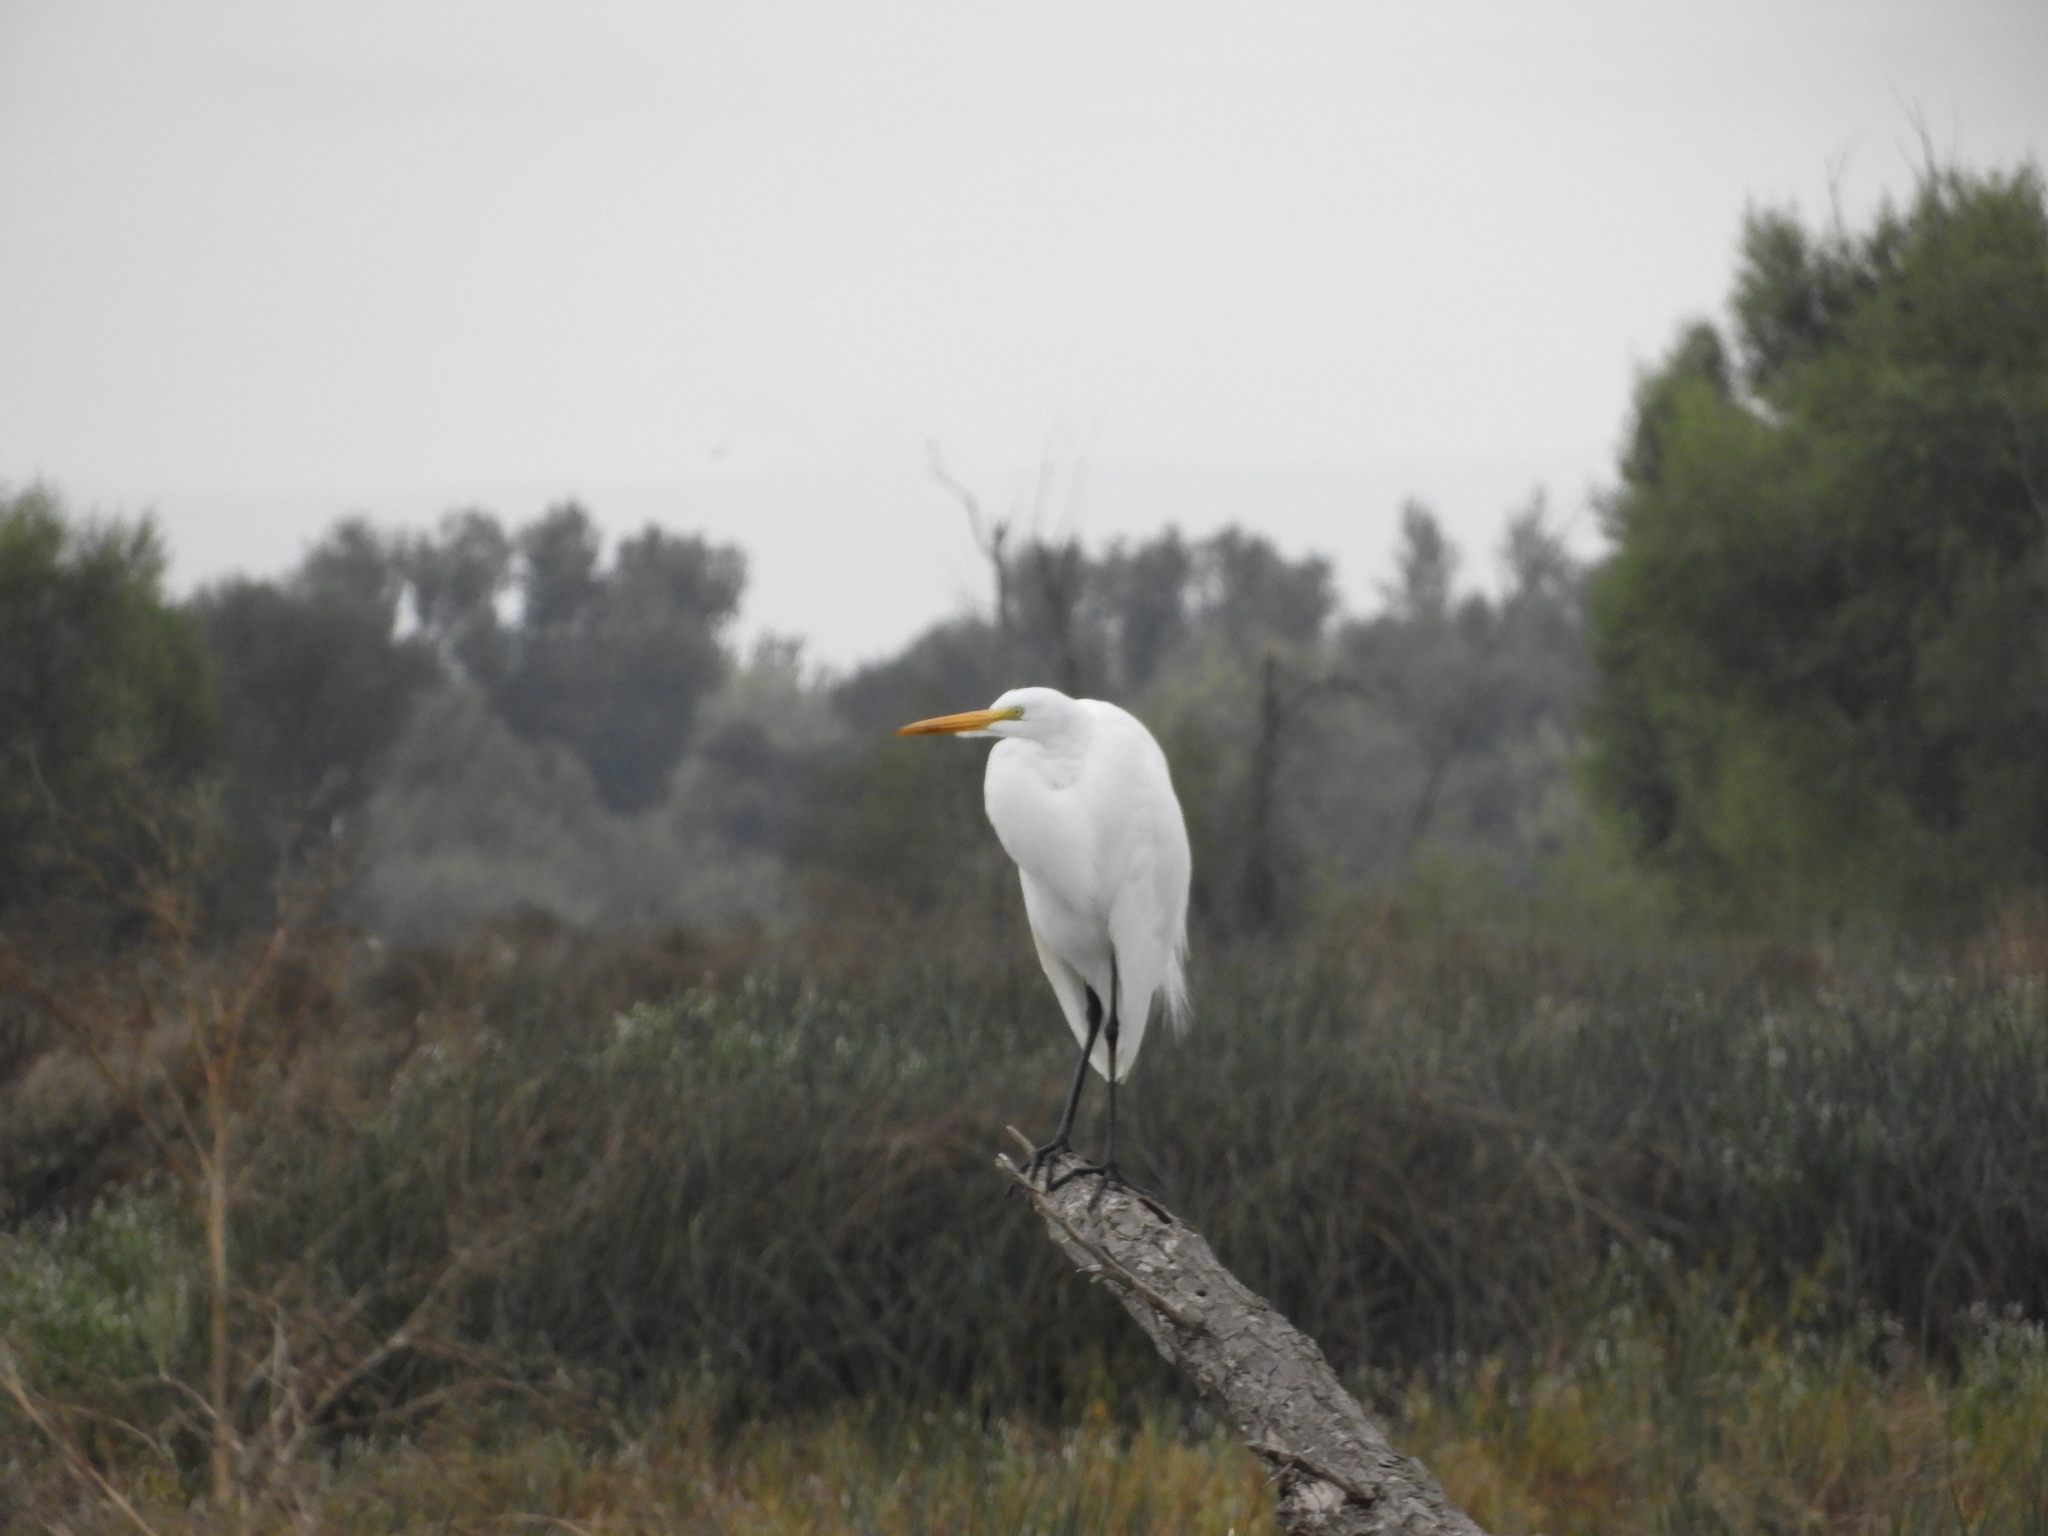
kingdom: Animalia
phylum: Chordata
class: Aves
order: Pelecaniformes
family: Ardeidae
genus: Ardea
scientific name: Ardea alba
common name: Great egret
